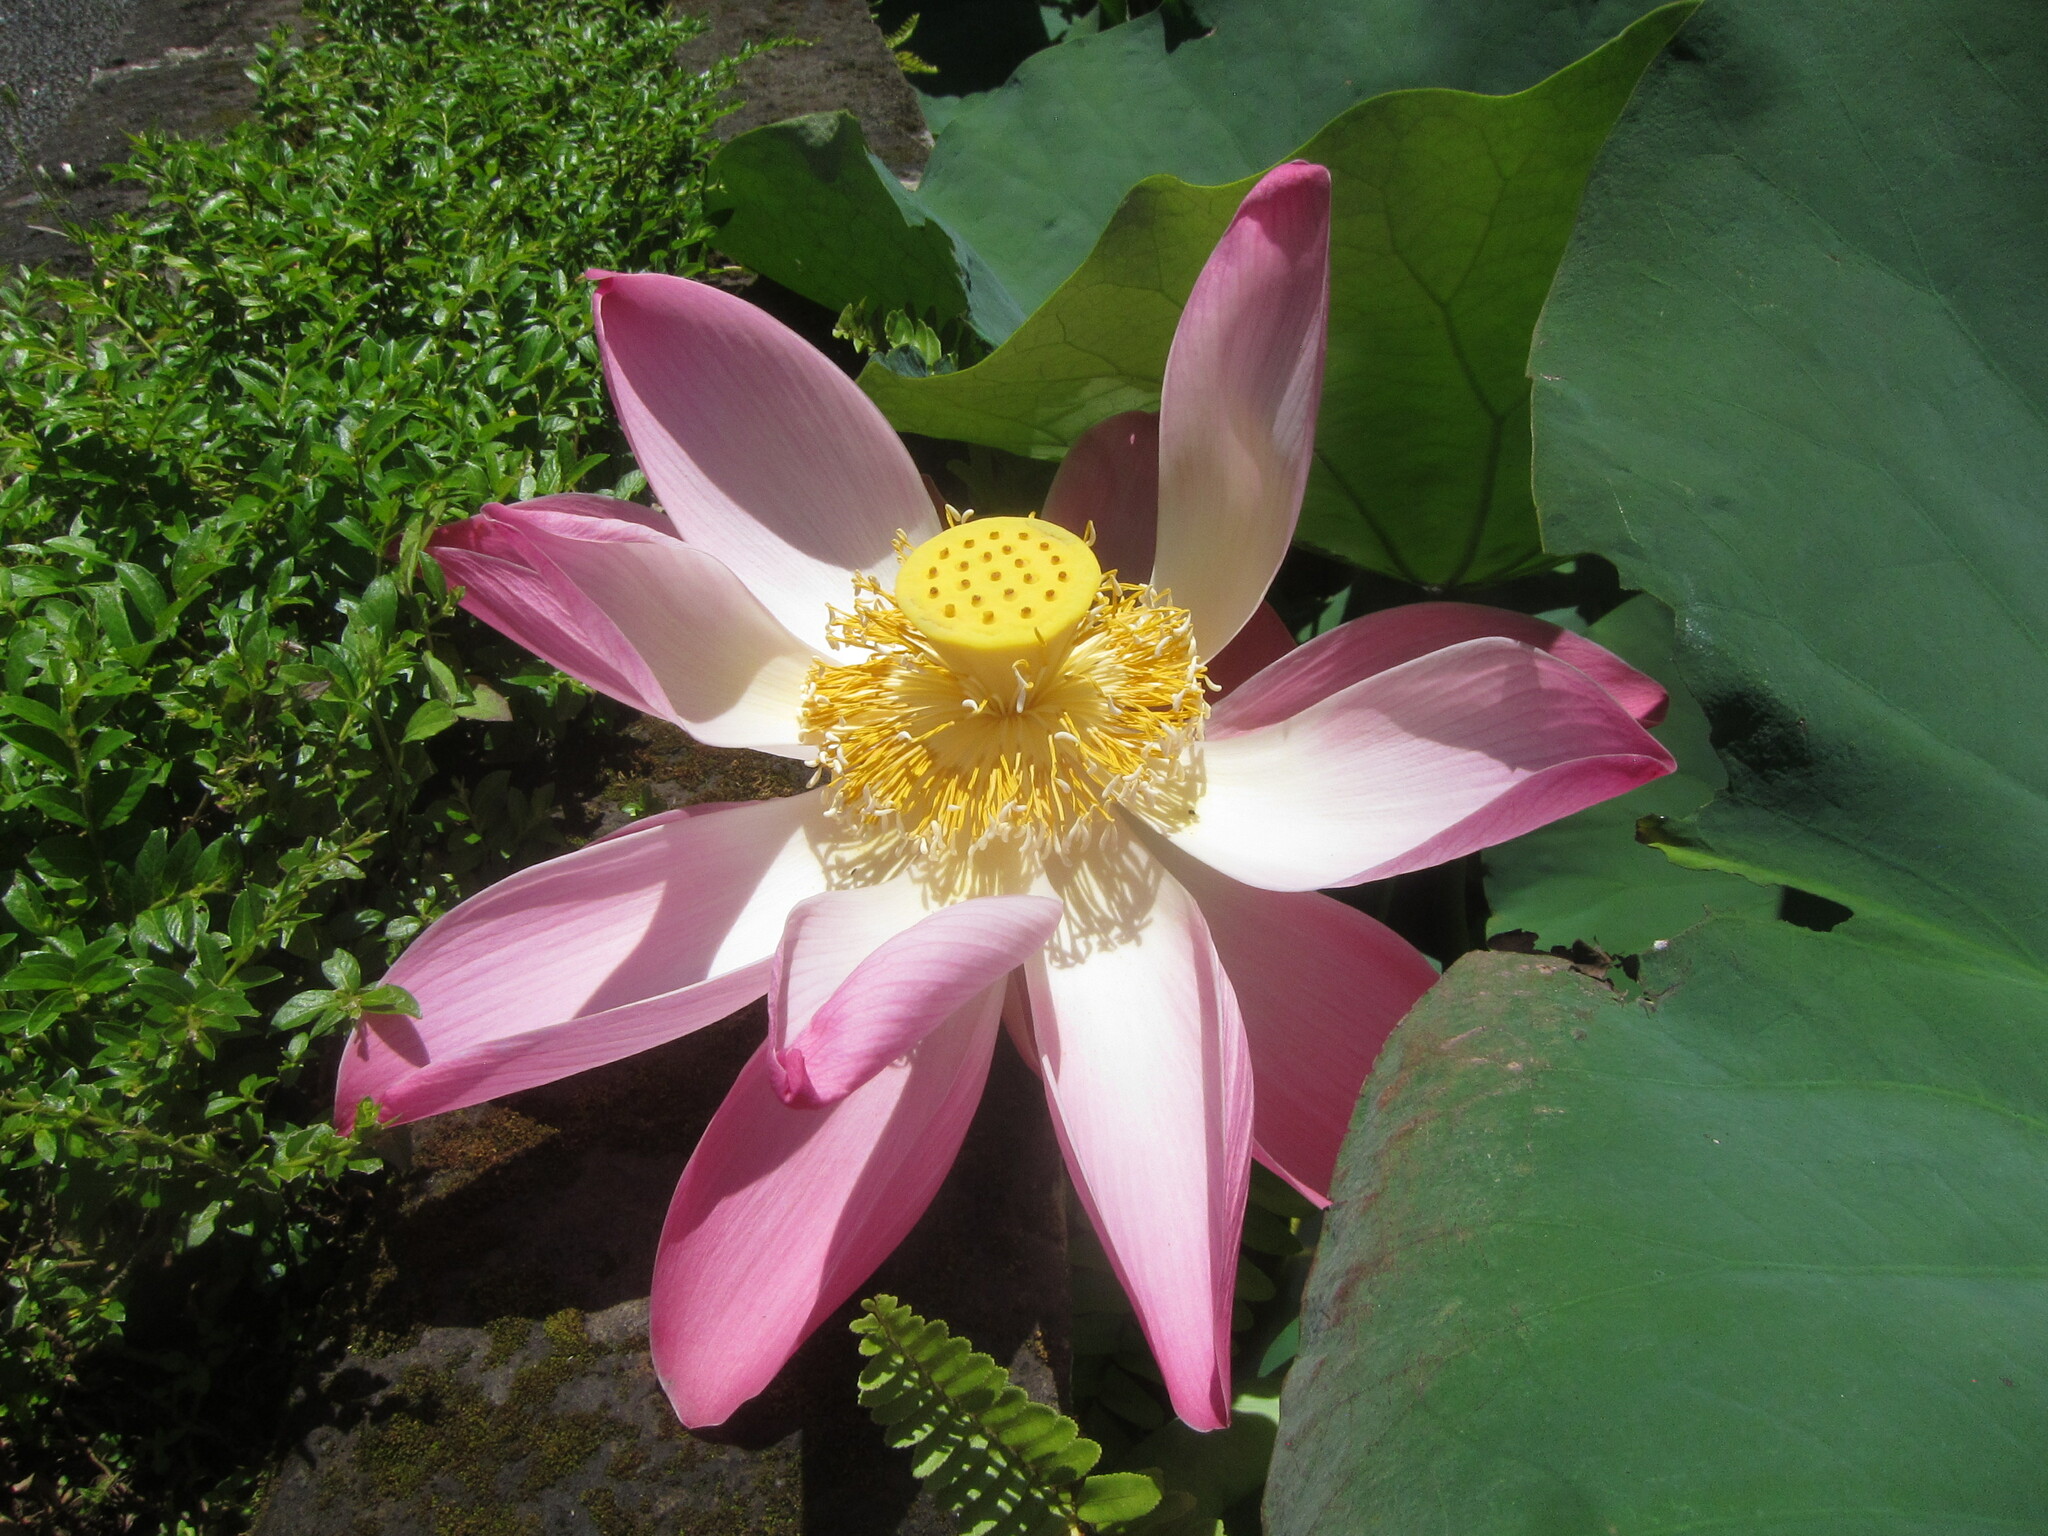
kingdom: Plantae
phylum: Tracheophyta
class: Magnoliopsida
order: Proteales
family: Nelumbonaceae
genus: Nelumbo
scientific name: Nelumbo nucifera
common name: Sacred lotus
